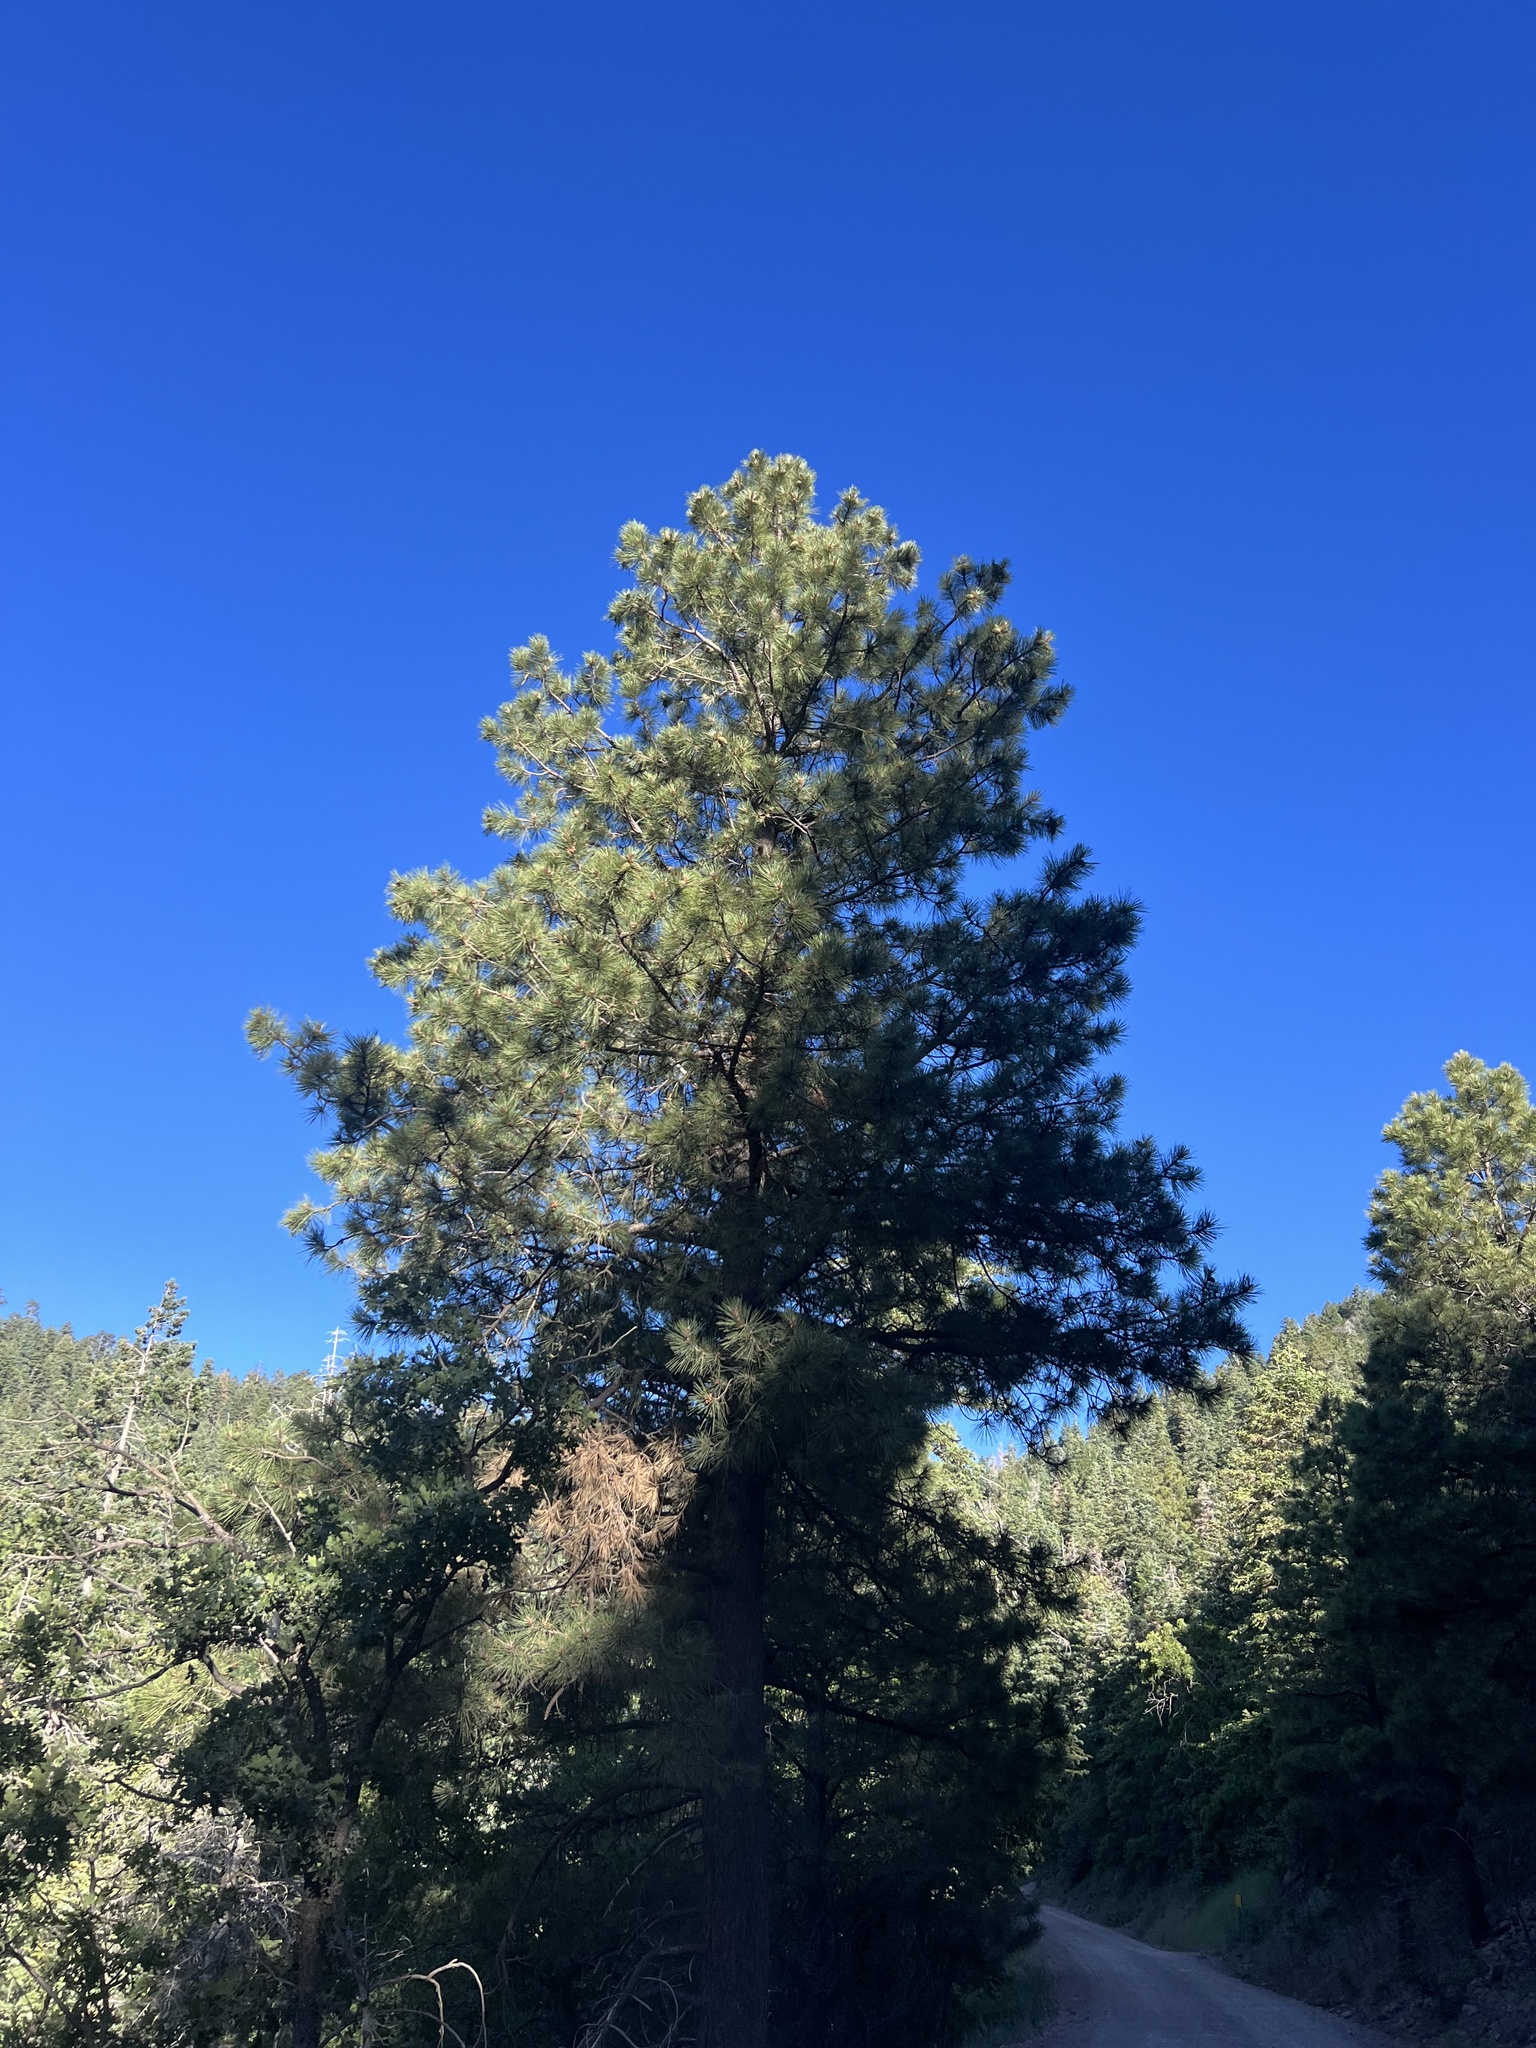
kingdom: Plantae
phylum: Tracheophyta
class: Pinopsida
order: Pinales
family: Pinaceae
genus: Pinus
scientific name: Pinus ponderosa
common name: Western yellow-pine
